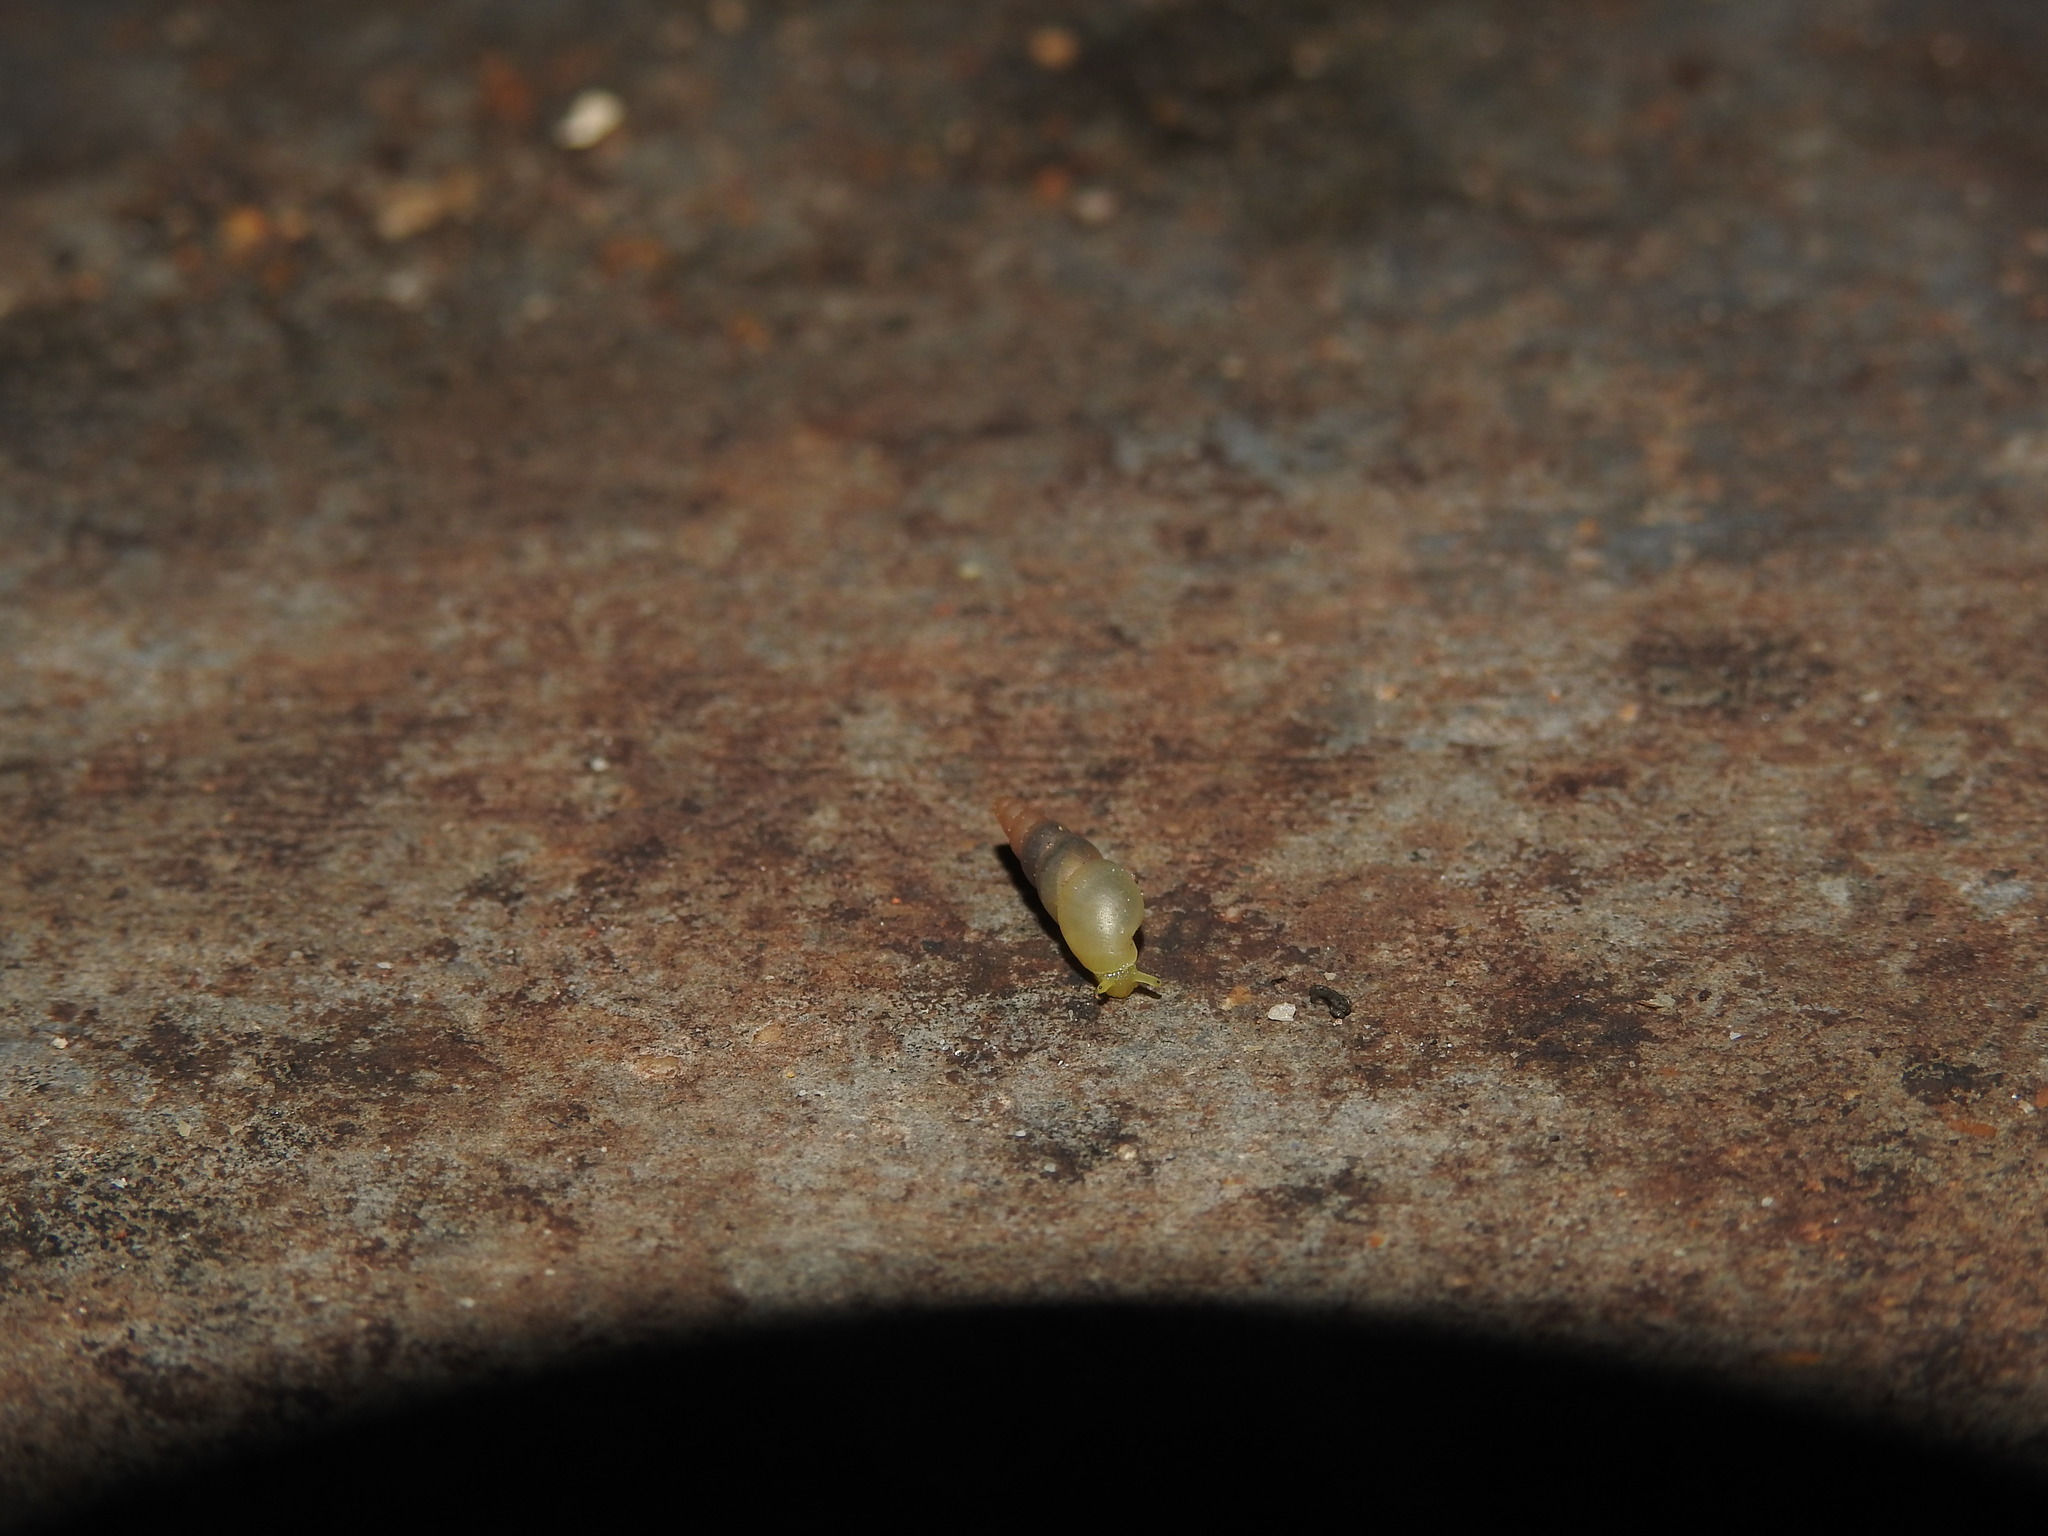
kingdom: Animalia
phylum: Mollusca
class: Gastropoda
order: Stylommatophora
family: Achatinidae
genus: Allopeas
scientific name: Allopeas gracile
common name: Graceful awlsnail
